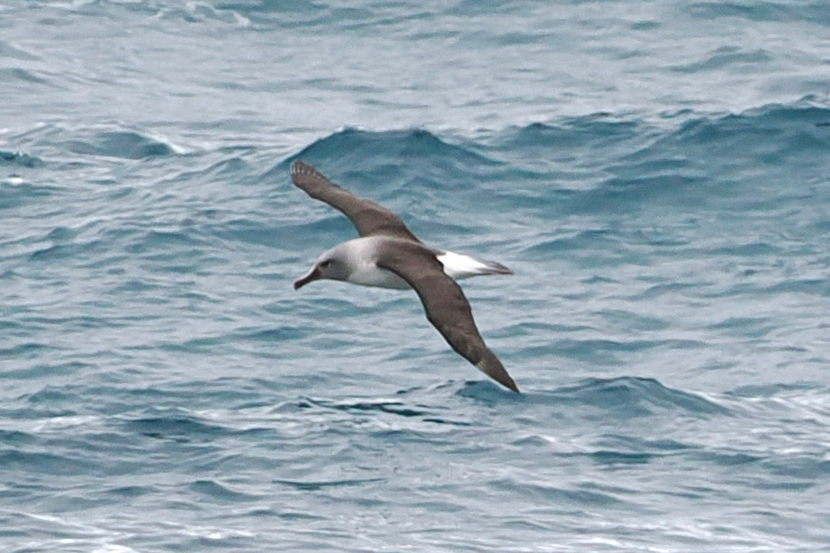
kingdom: Animalia
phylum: Chordata
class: Aves
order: Procellariiformes
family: Diomedeidae
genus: Thalassarche
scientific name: Thalassarche chrysostoma
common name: Grey-headed albatross
